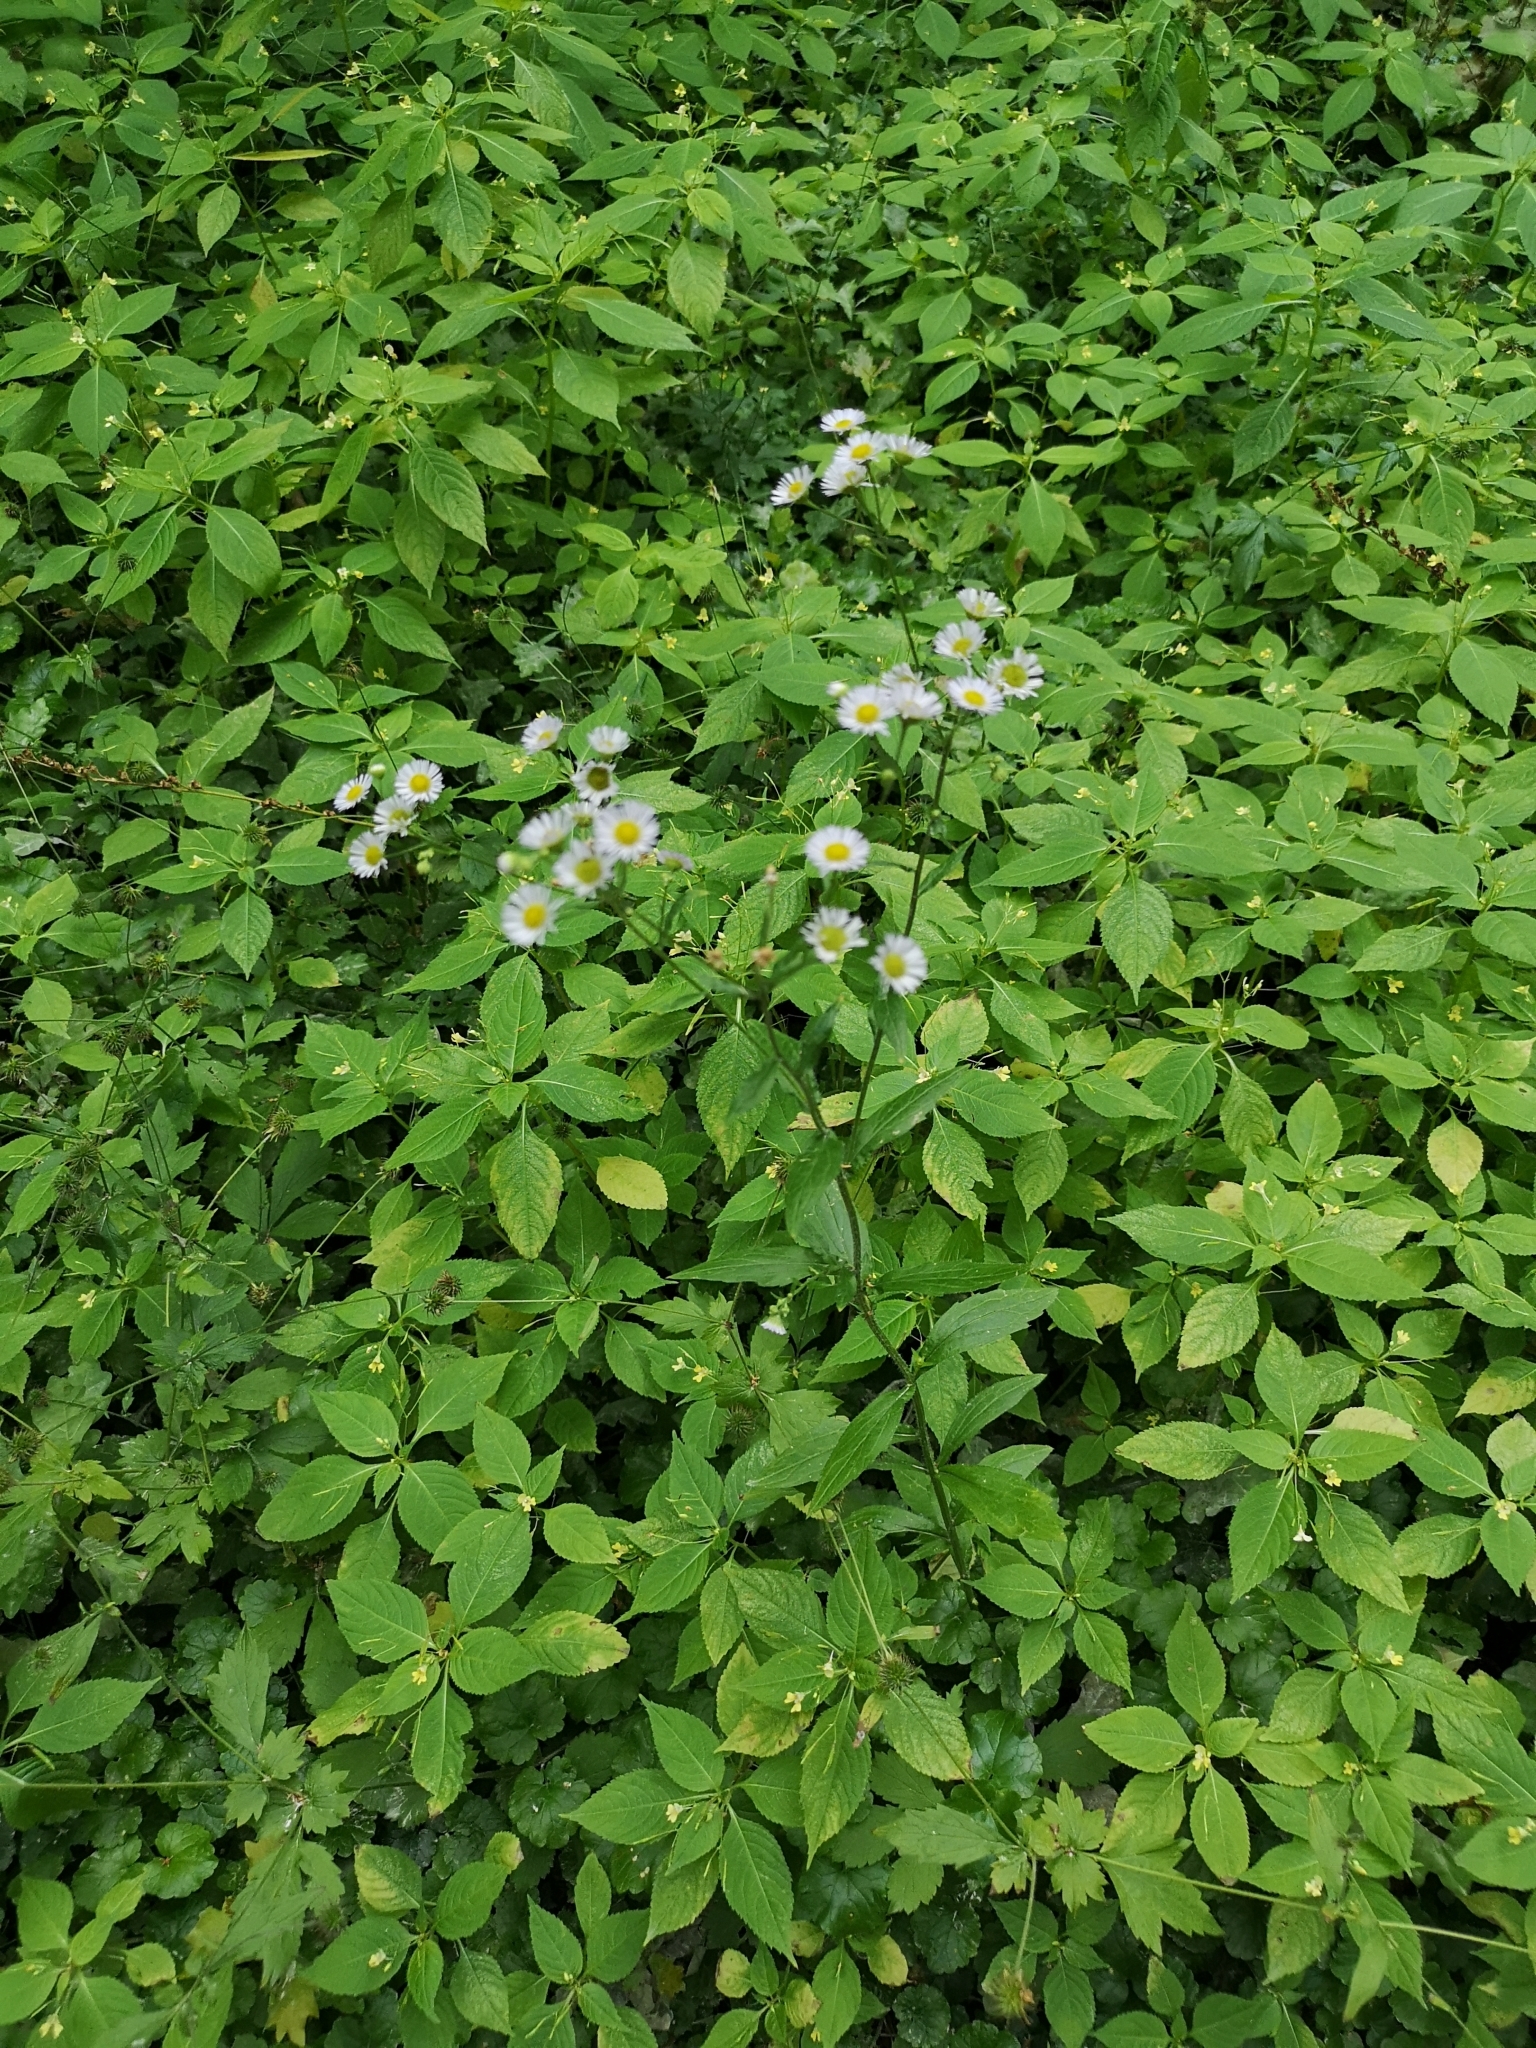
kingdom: Plantae
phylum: Tracheophyta
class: Magnoliopsida
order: Asterales
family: Asteraceae
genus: Erigeron
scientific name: Erigeron annuus
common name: Tall fleabane
